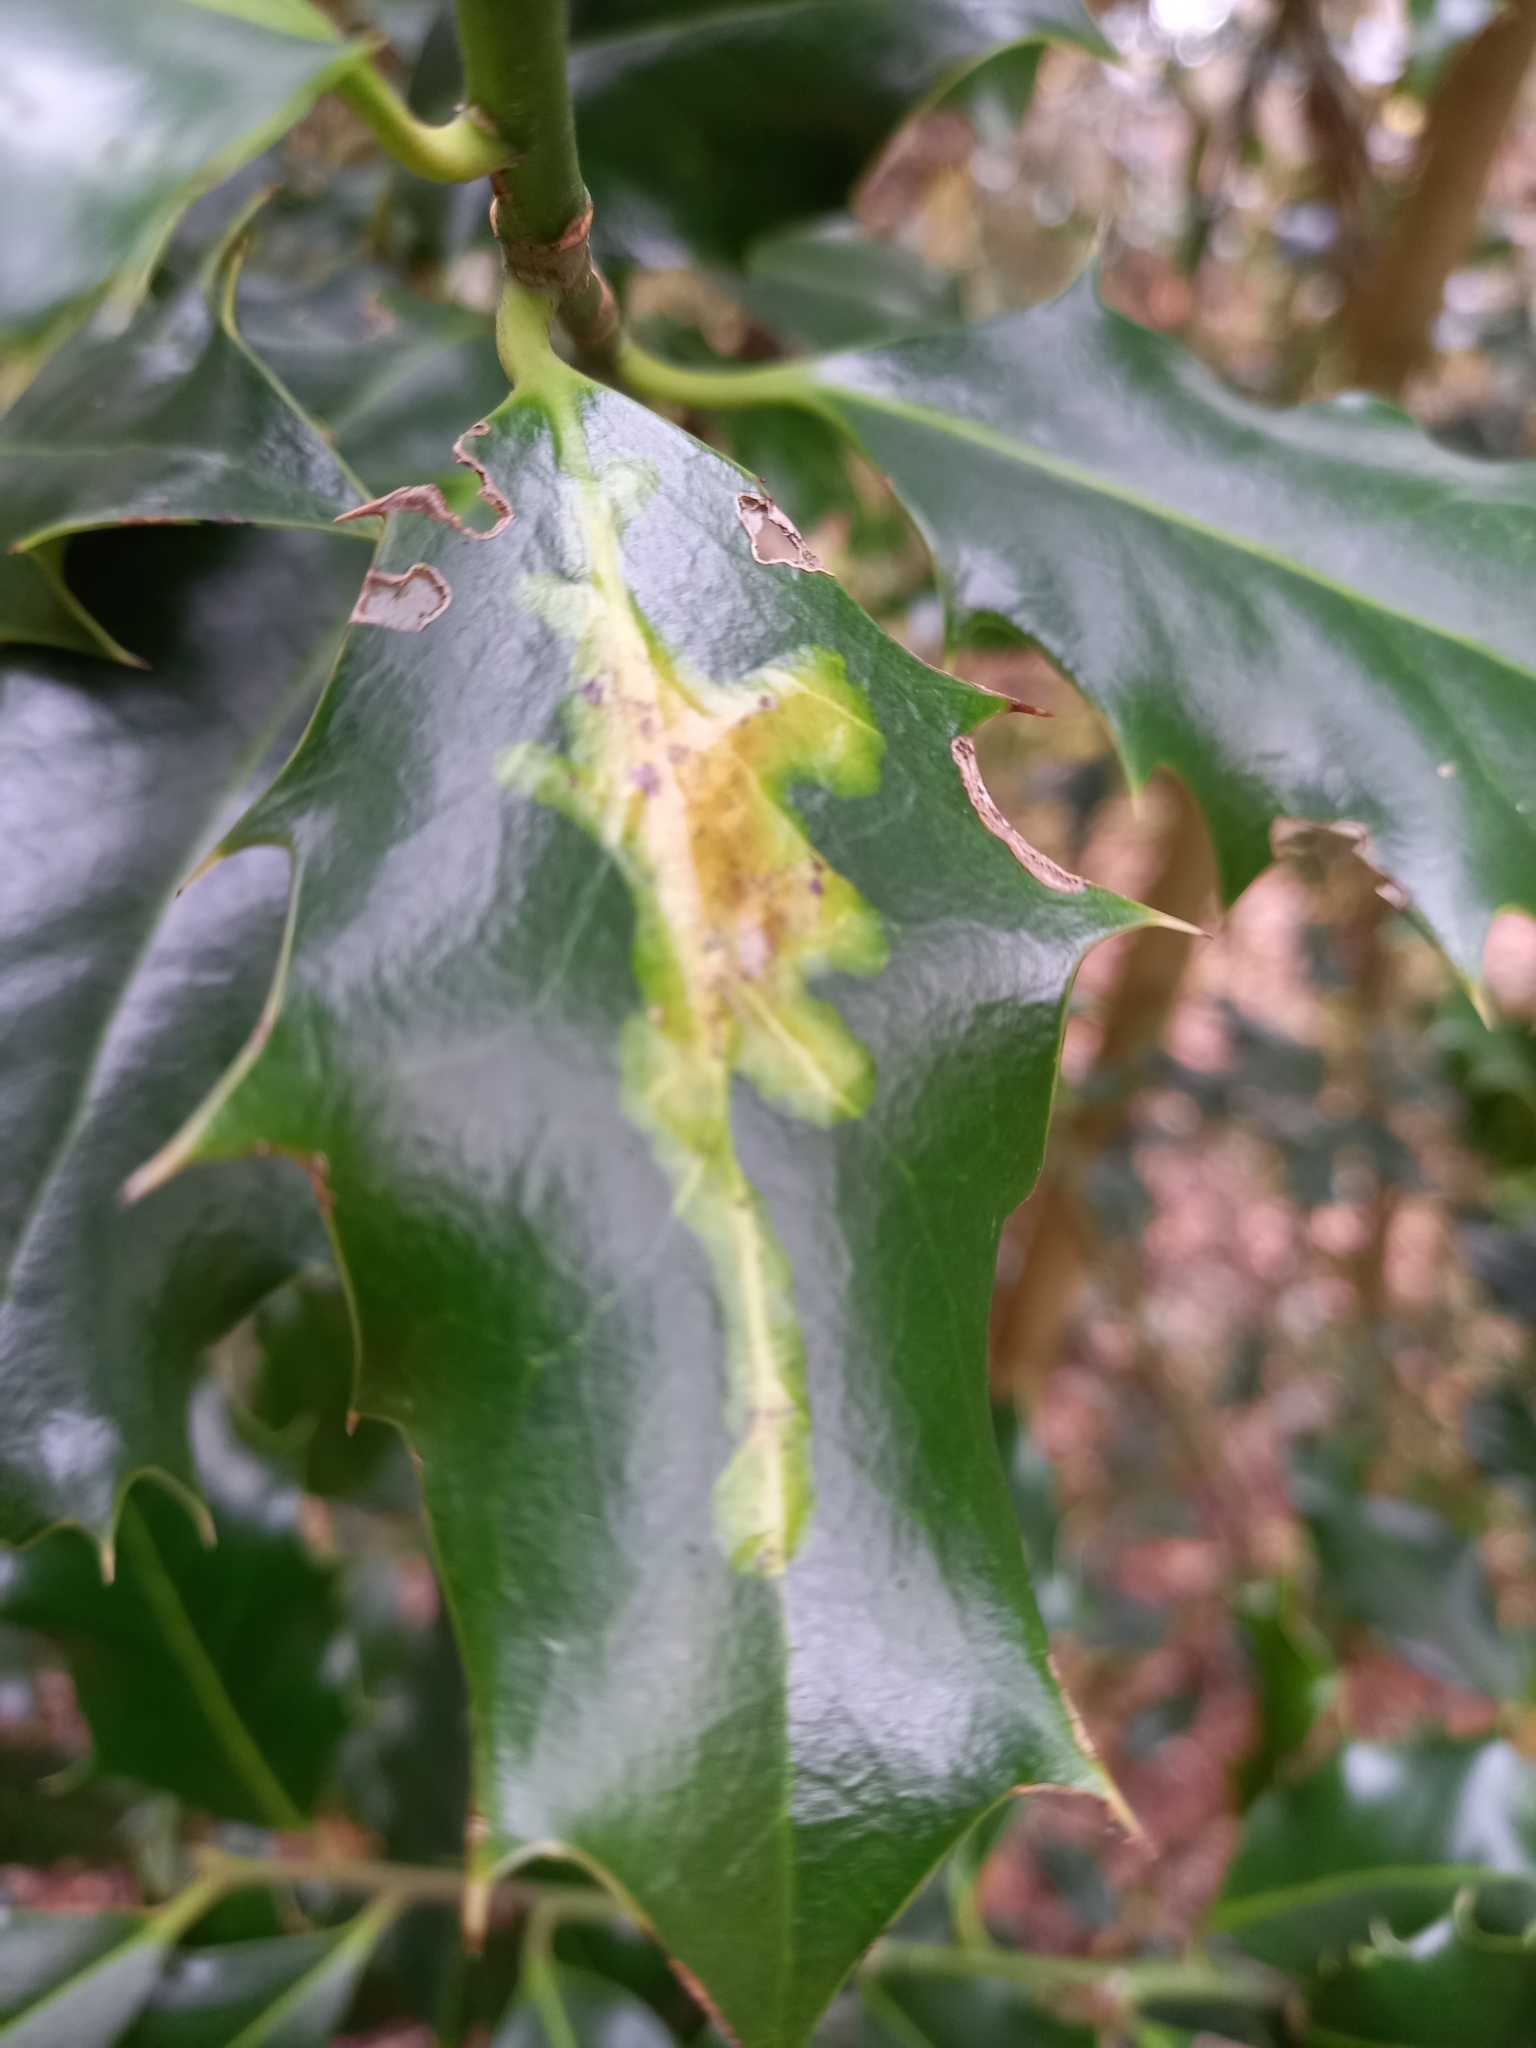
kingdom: Animalia
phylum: Arthropoda
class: Insecta
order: Diptera
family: Agromyzidae
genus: Phytomyza
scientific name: Phytomyza ilicis
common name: Holly leafminer
